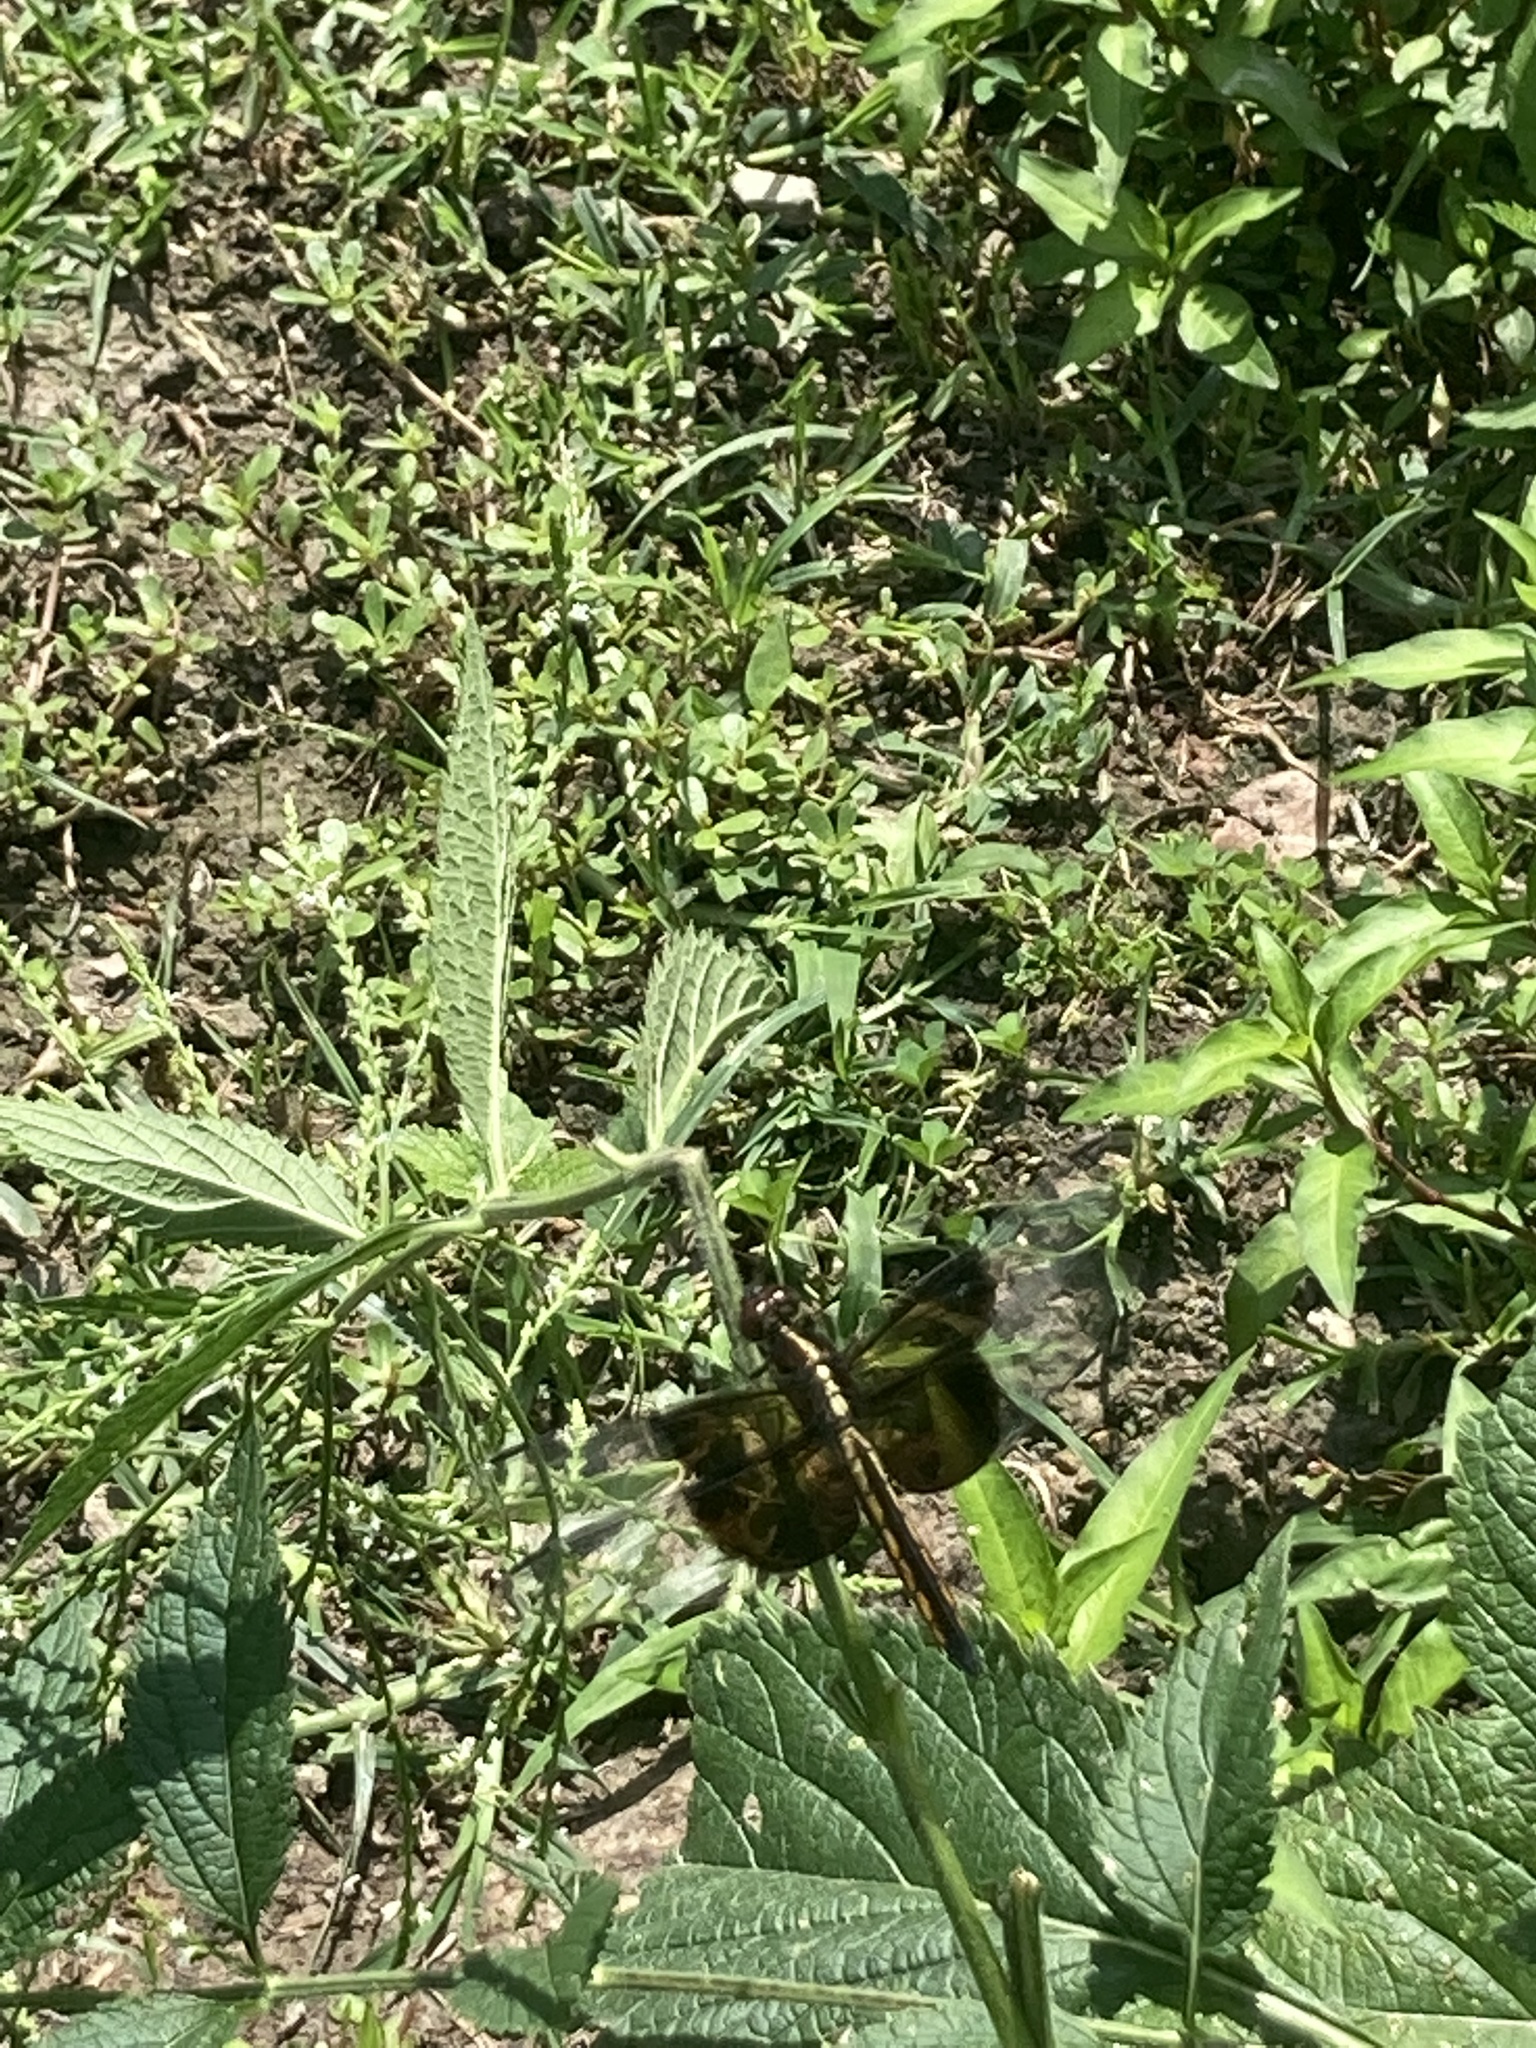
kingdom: Animalia
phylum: Arthropoda
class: Insecta
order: Odonata
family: Libellulidae
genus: Libellula
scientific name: Libellula luctuosa
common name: Widow skimmer
